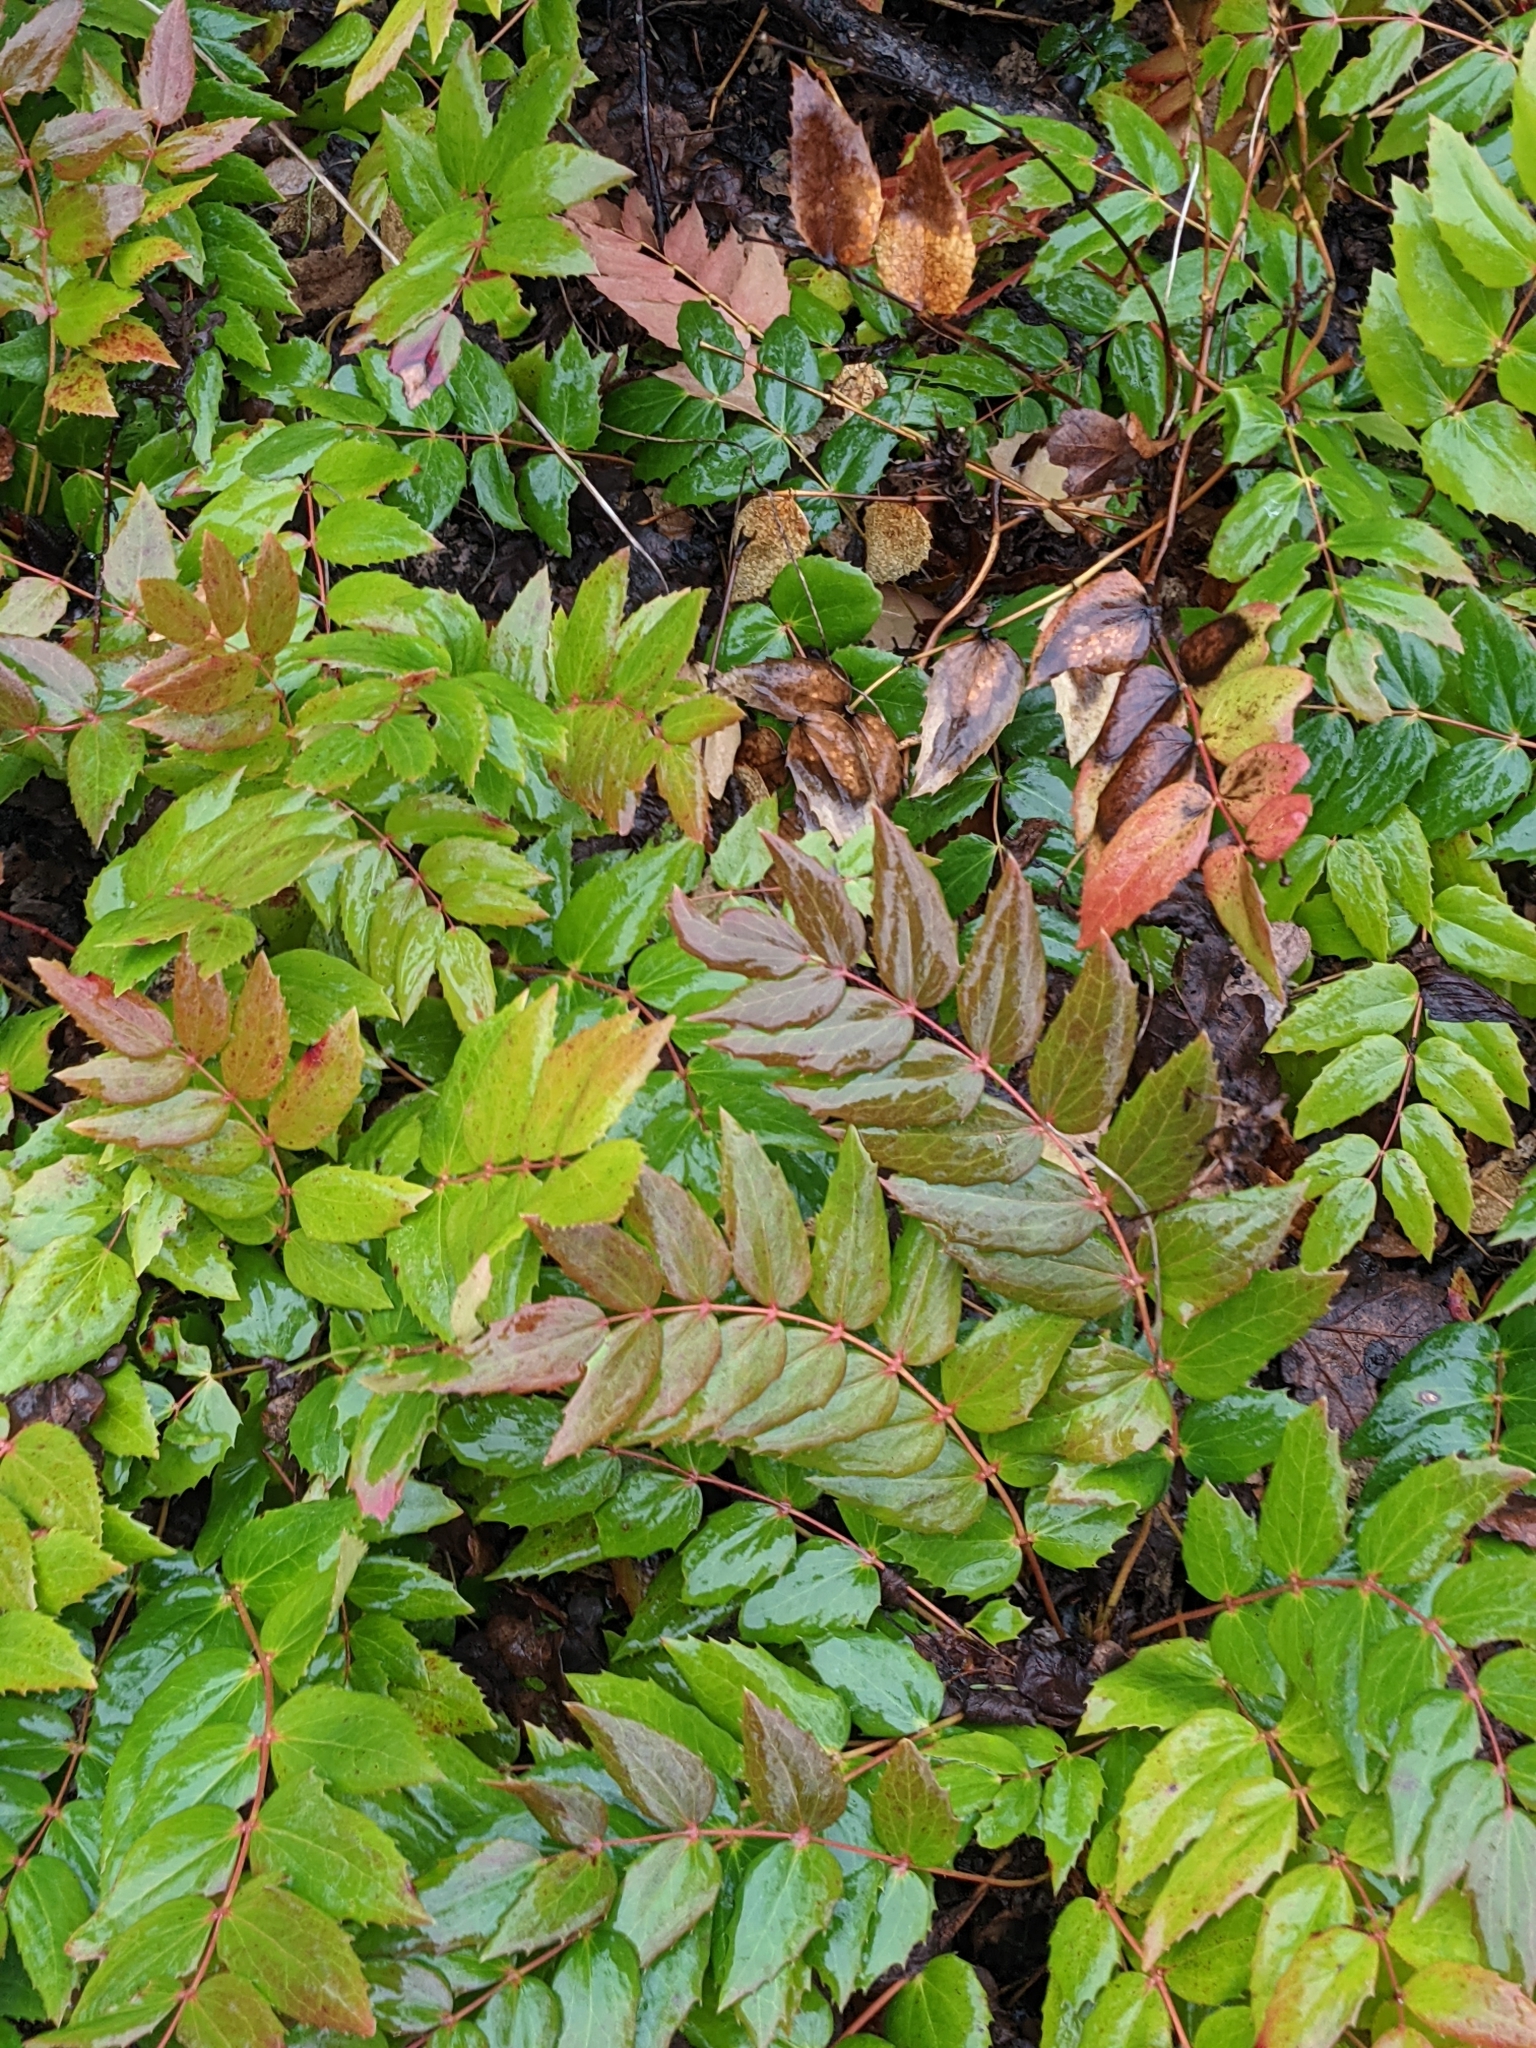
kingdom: Plantae
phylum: Tracheophyta
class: Magnoliopsida
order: Ranunculales
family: Berberidaceae
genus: Mahonia
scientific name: Mahonia nervosa
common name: Cascade oregon-grape
